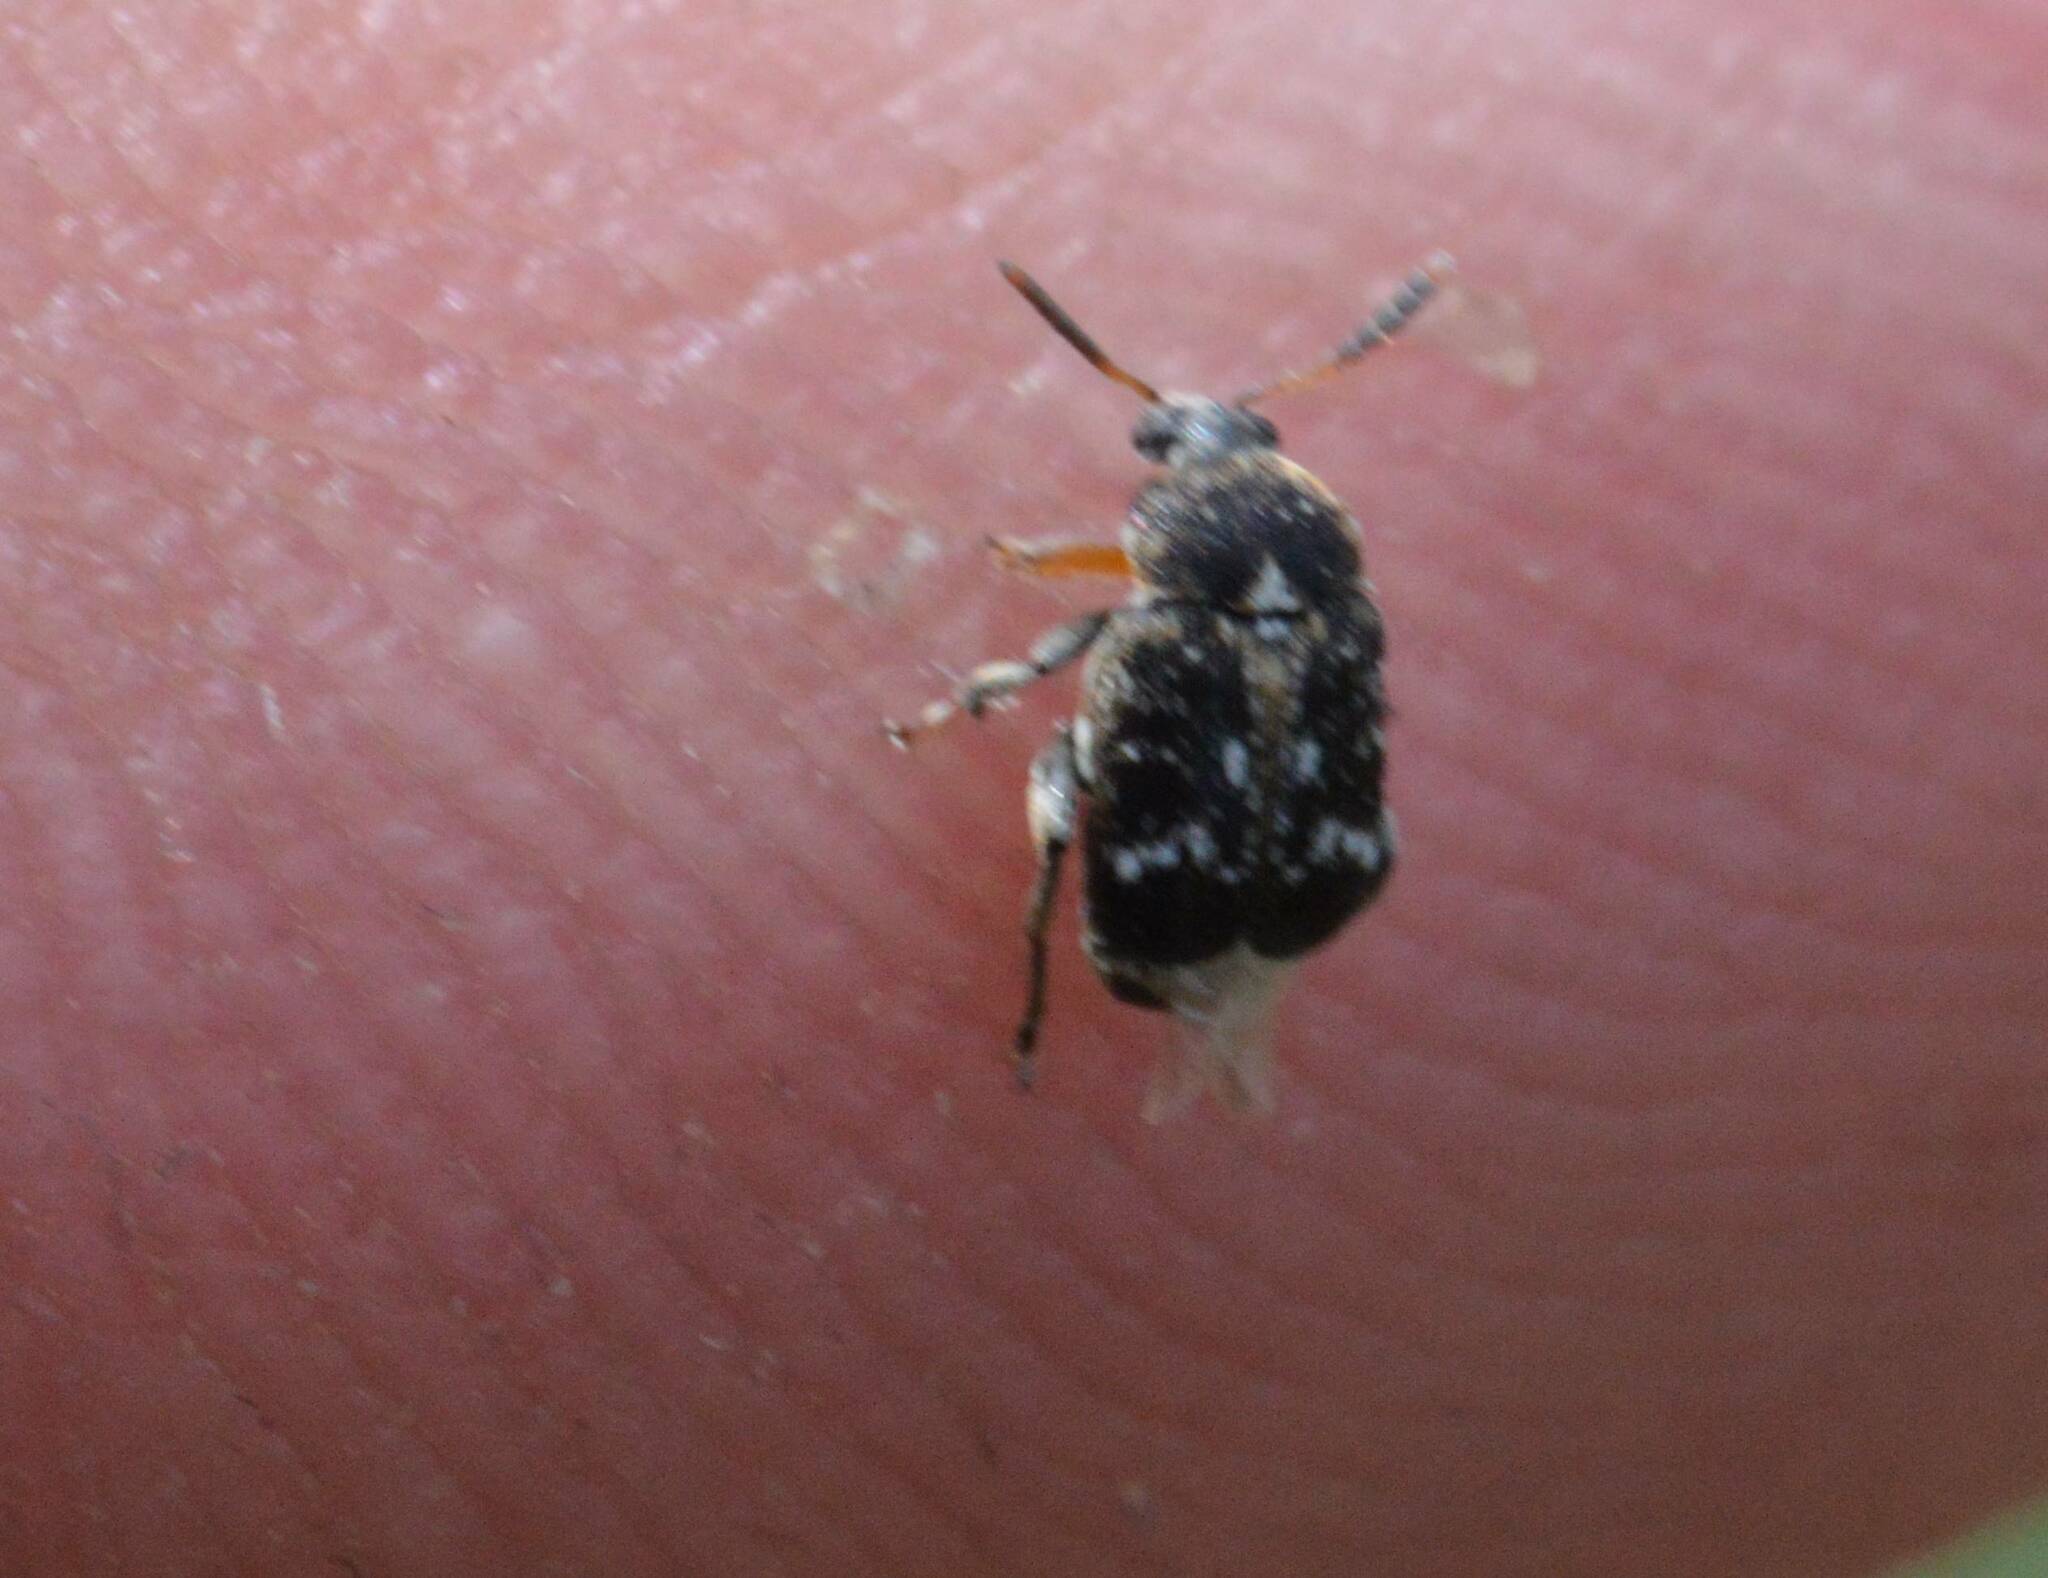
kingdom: Animalia
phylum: Arthropoda
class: Insecta
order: Coleoptera
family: Chrysomelidae
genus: Bruchus
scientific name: Bruchus pisorum
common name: Pea weevil
